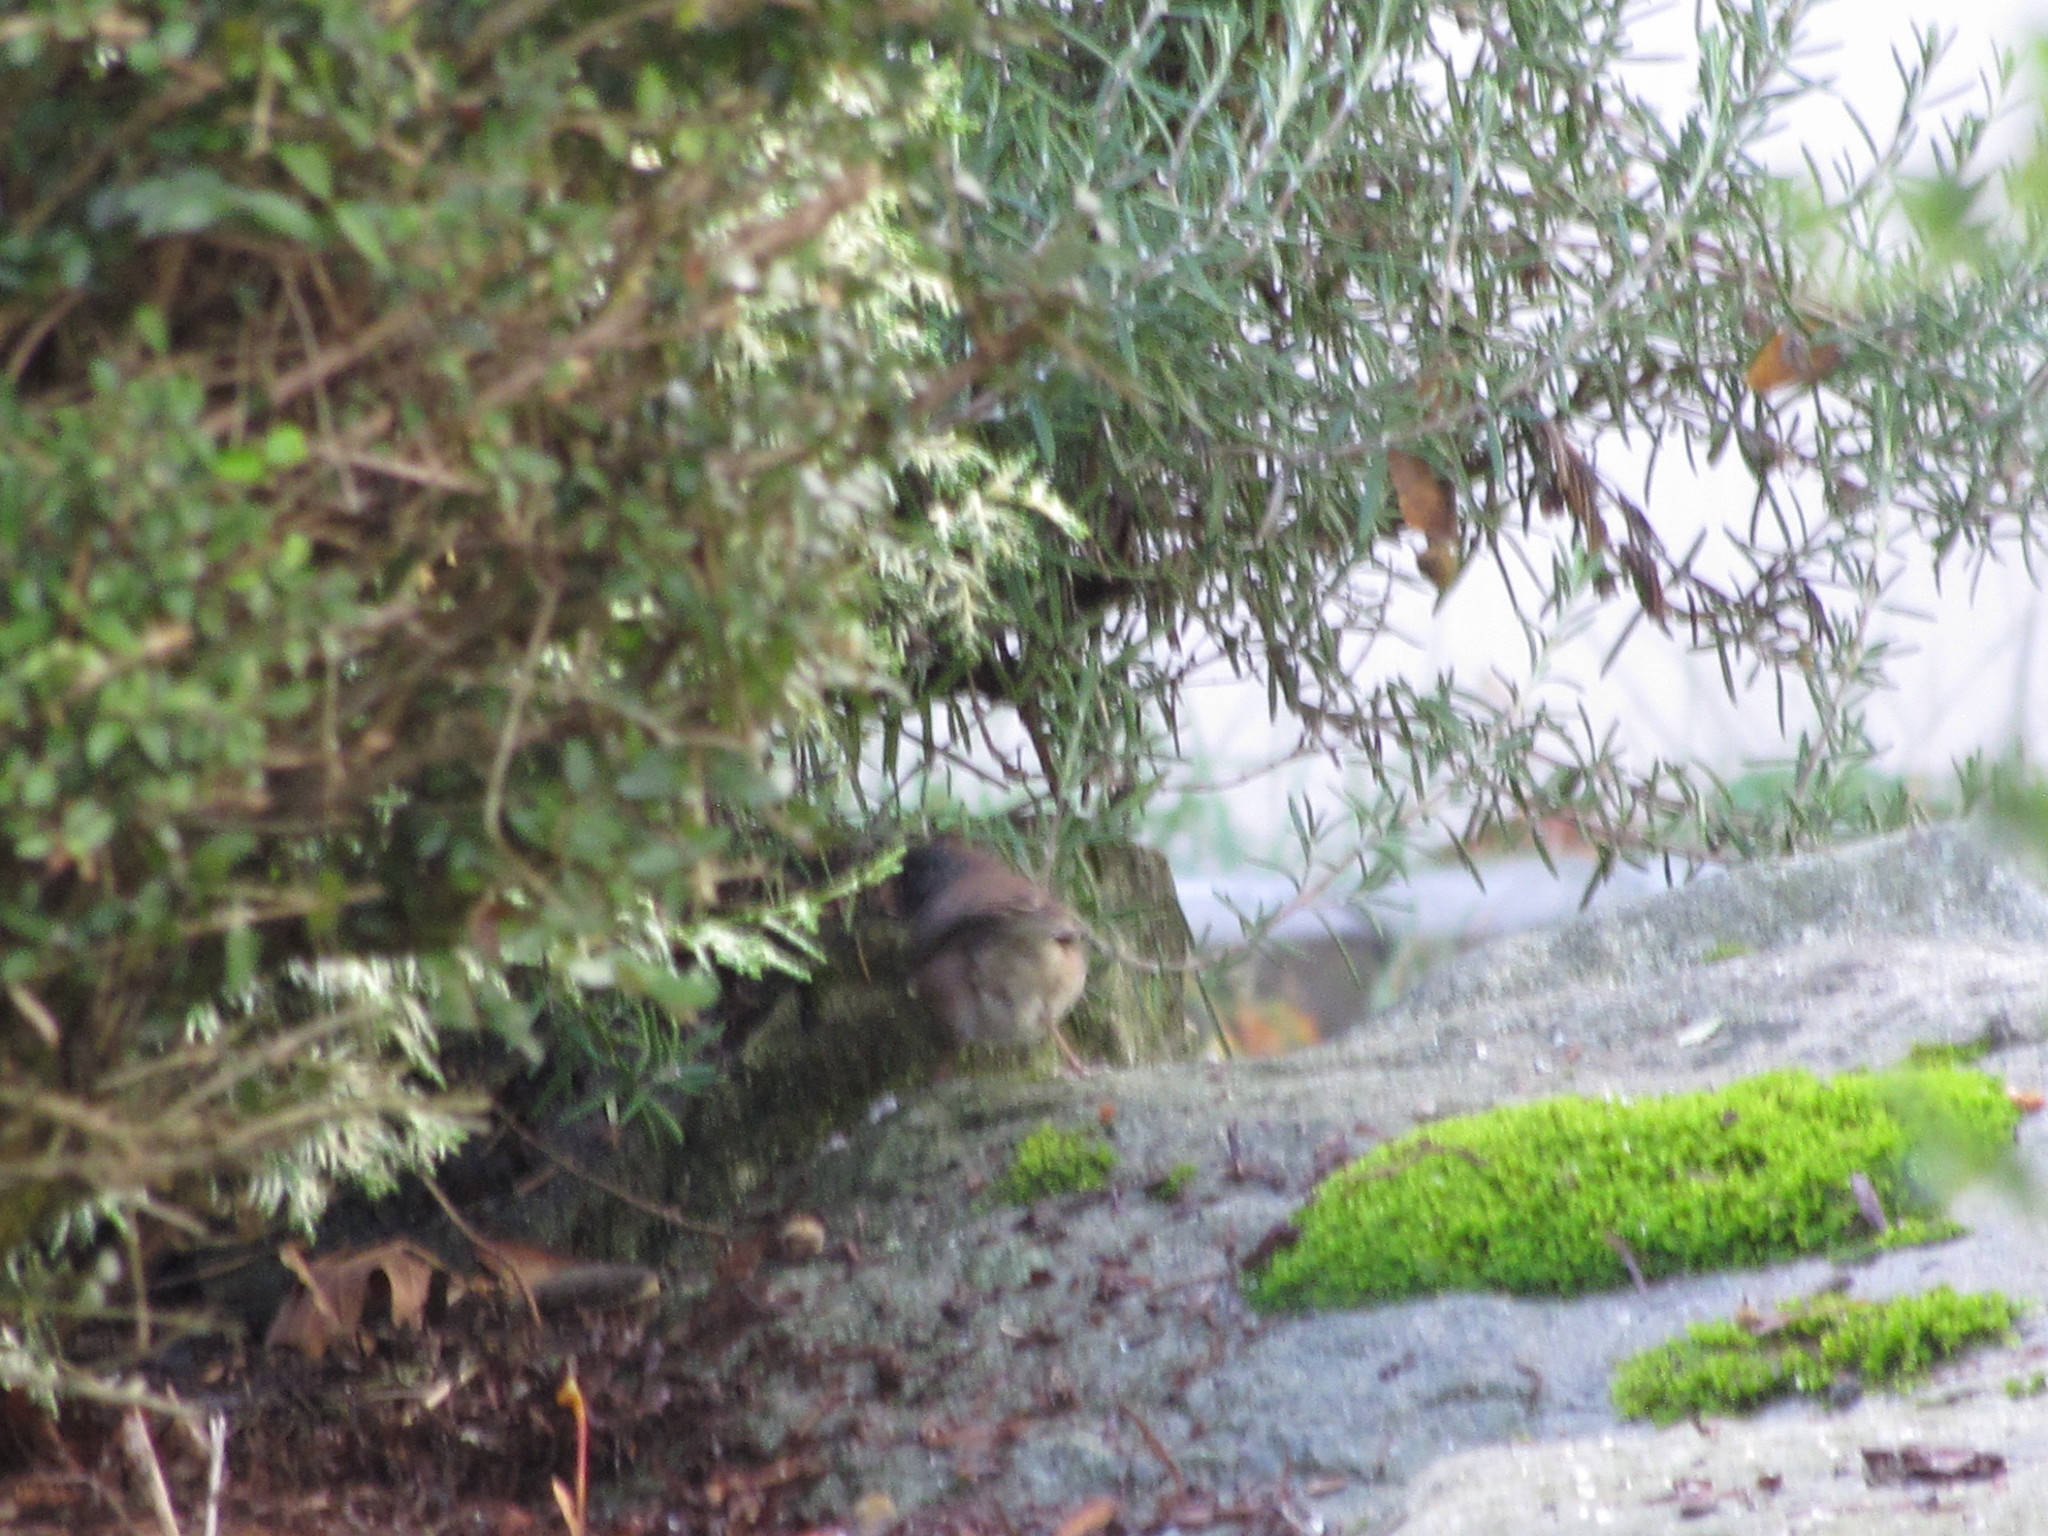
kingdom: Animalia
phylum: Chordata
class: Aves
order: Passeriformes
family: Passerellidae
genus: Junco
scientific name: Junco hyemalis
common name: Dark-eyed junco
